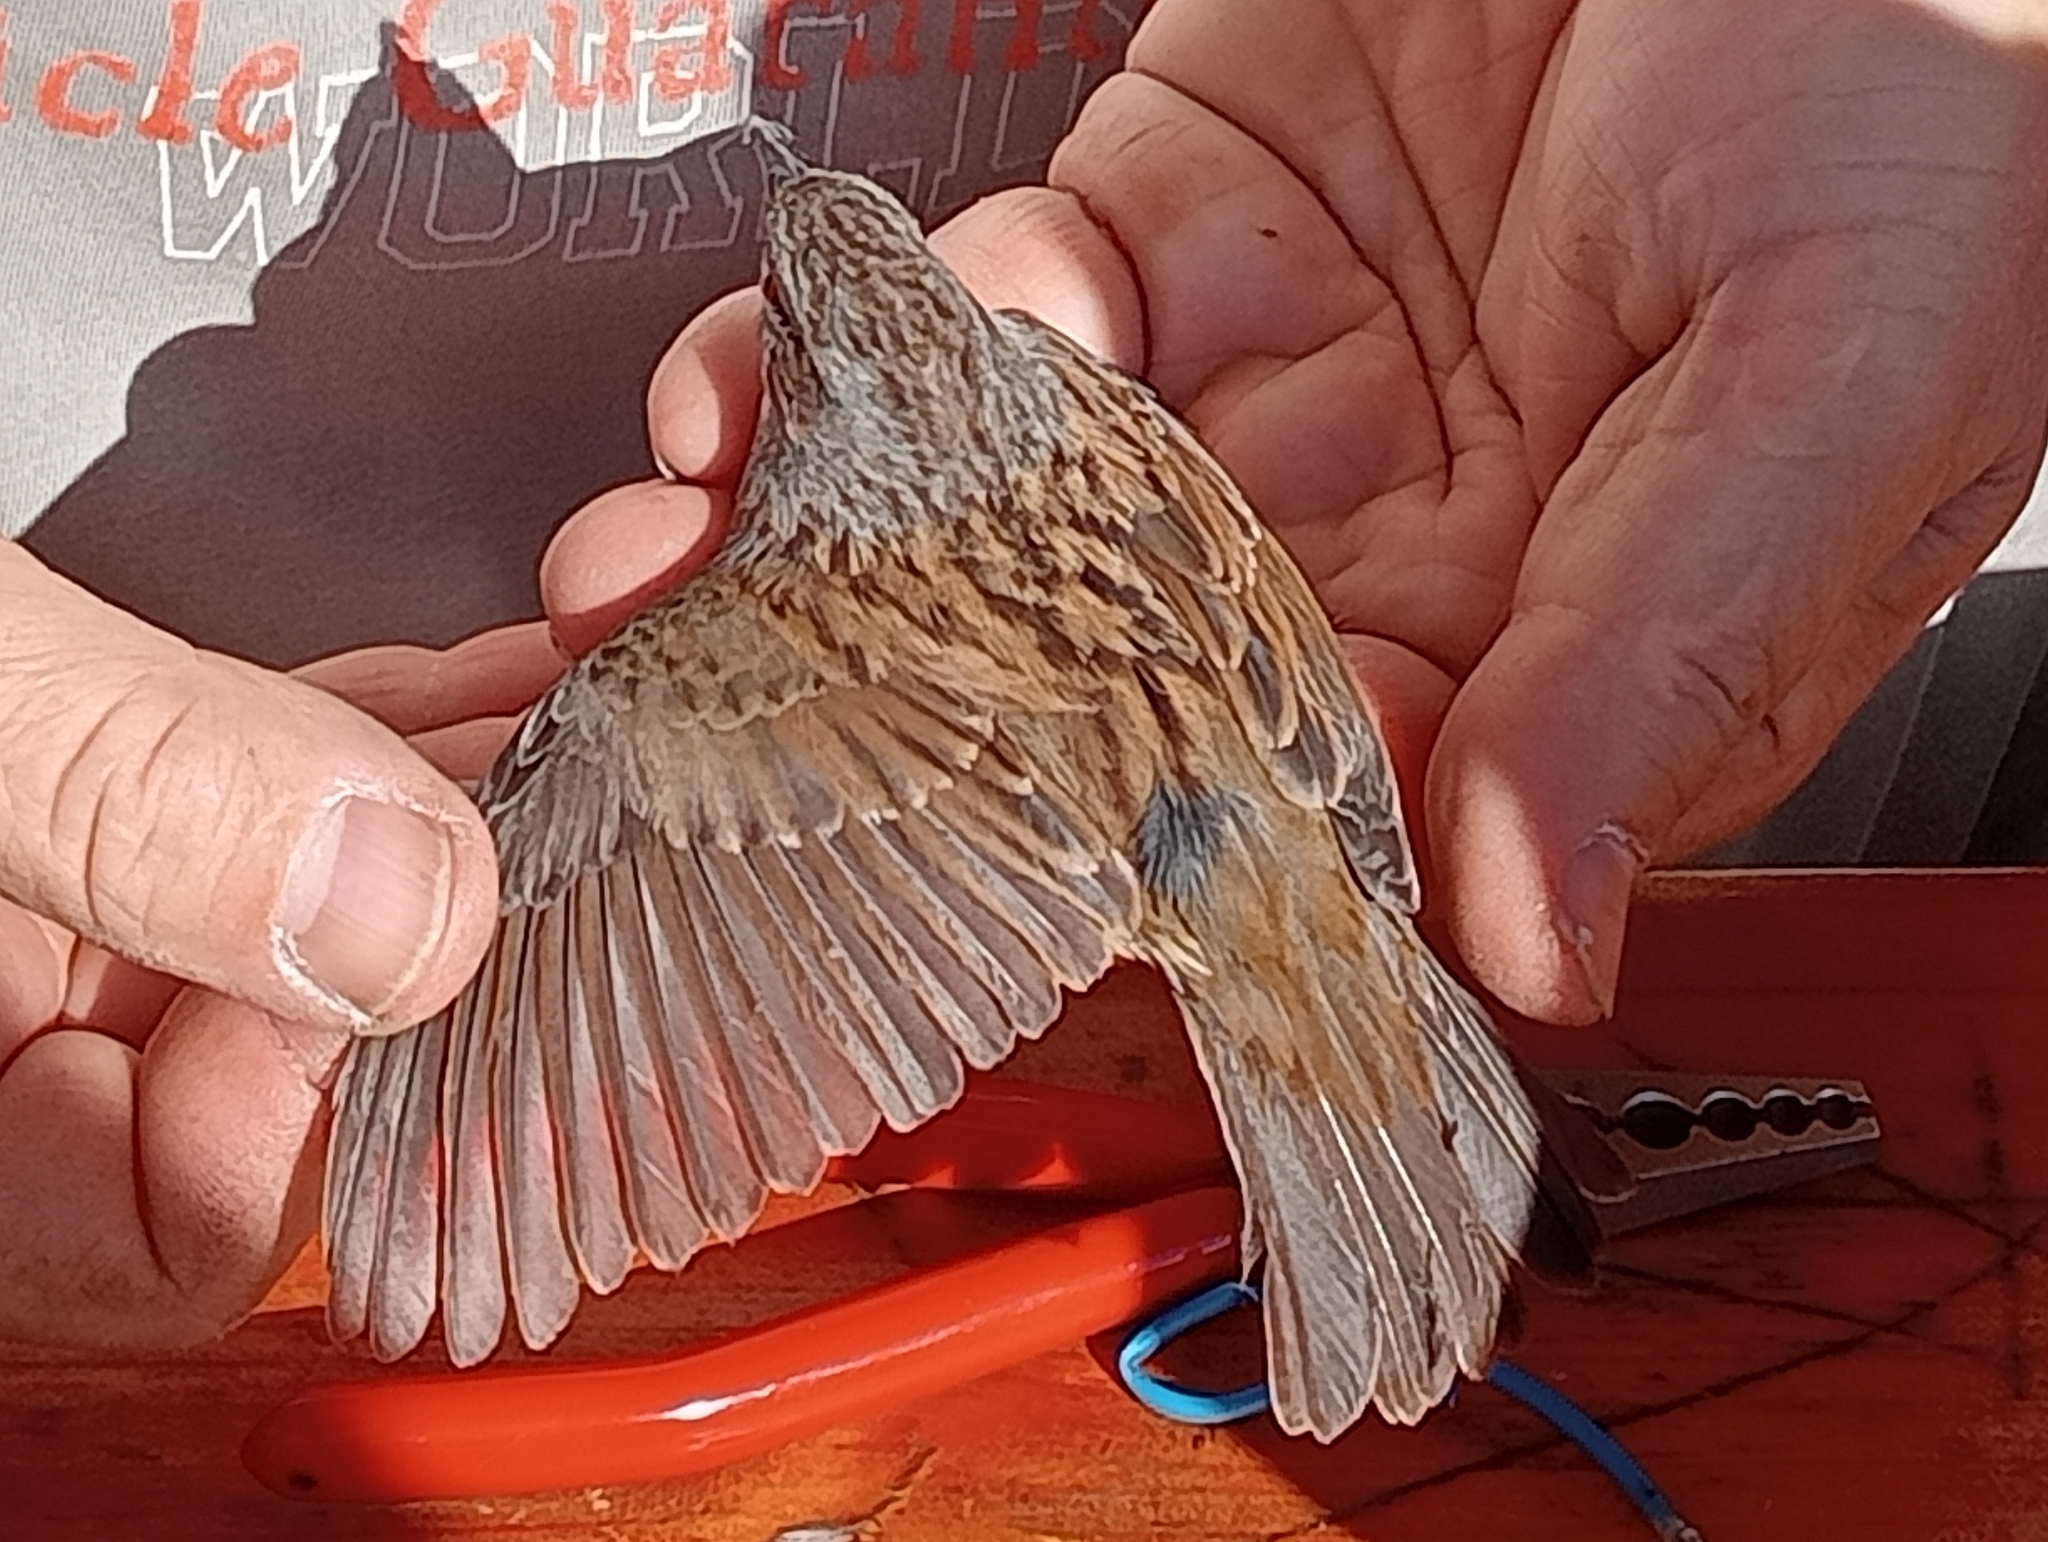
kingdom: Animalia
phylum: Chordata
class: Aves
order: Passeriformes
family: Prunellidae
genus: Prunella
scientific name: Prunella modularis
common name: Dunnock
